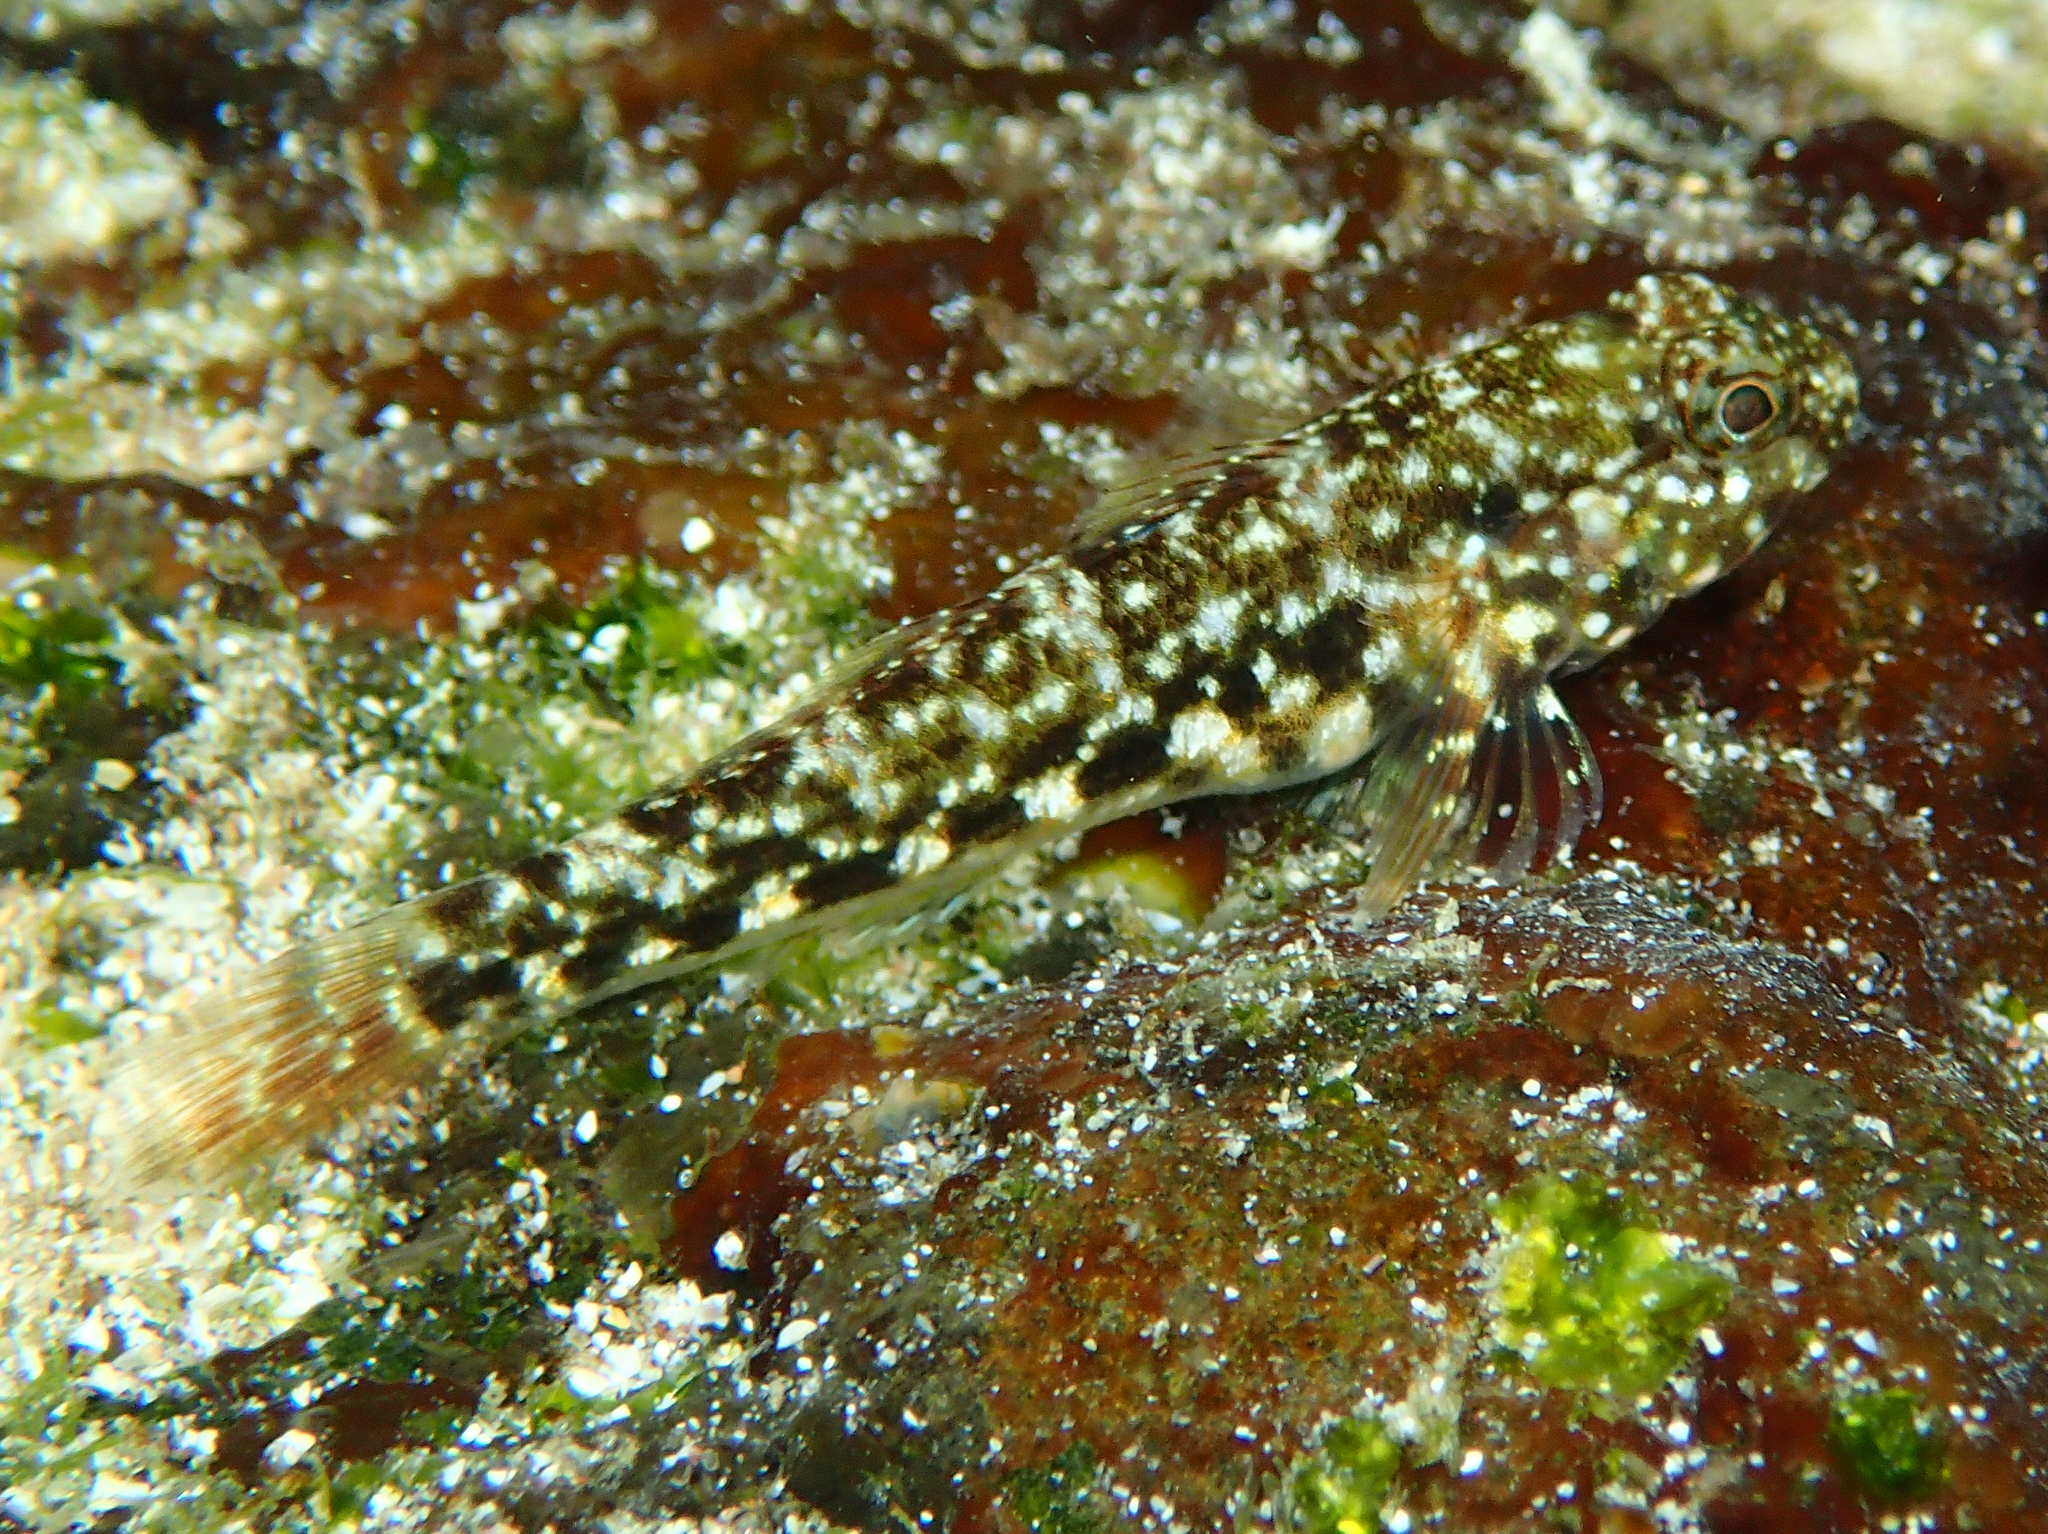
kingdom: Animalia
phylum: Chordata
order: Perciformes
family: Gobiidae
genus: Bathygobius
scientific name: Bathygobius lineatus
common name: Southern frillfin
